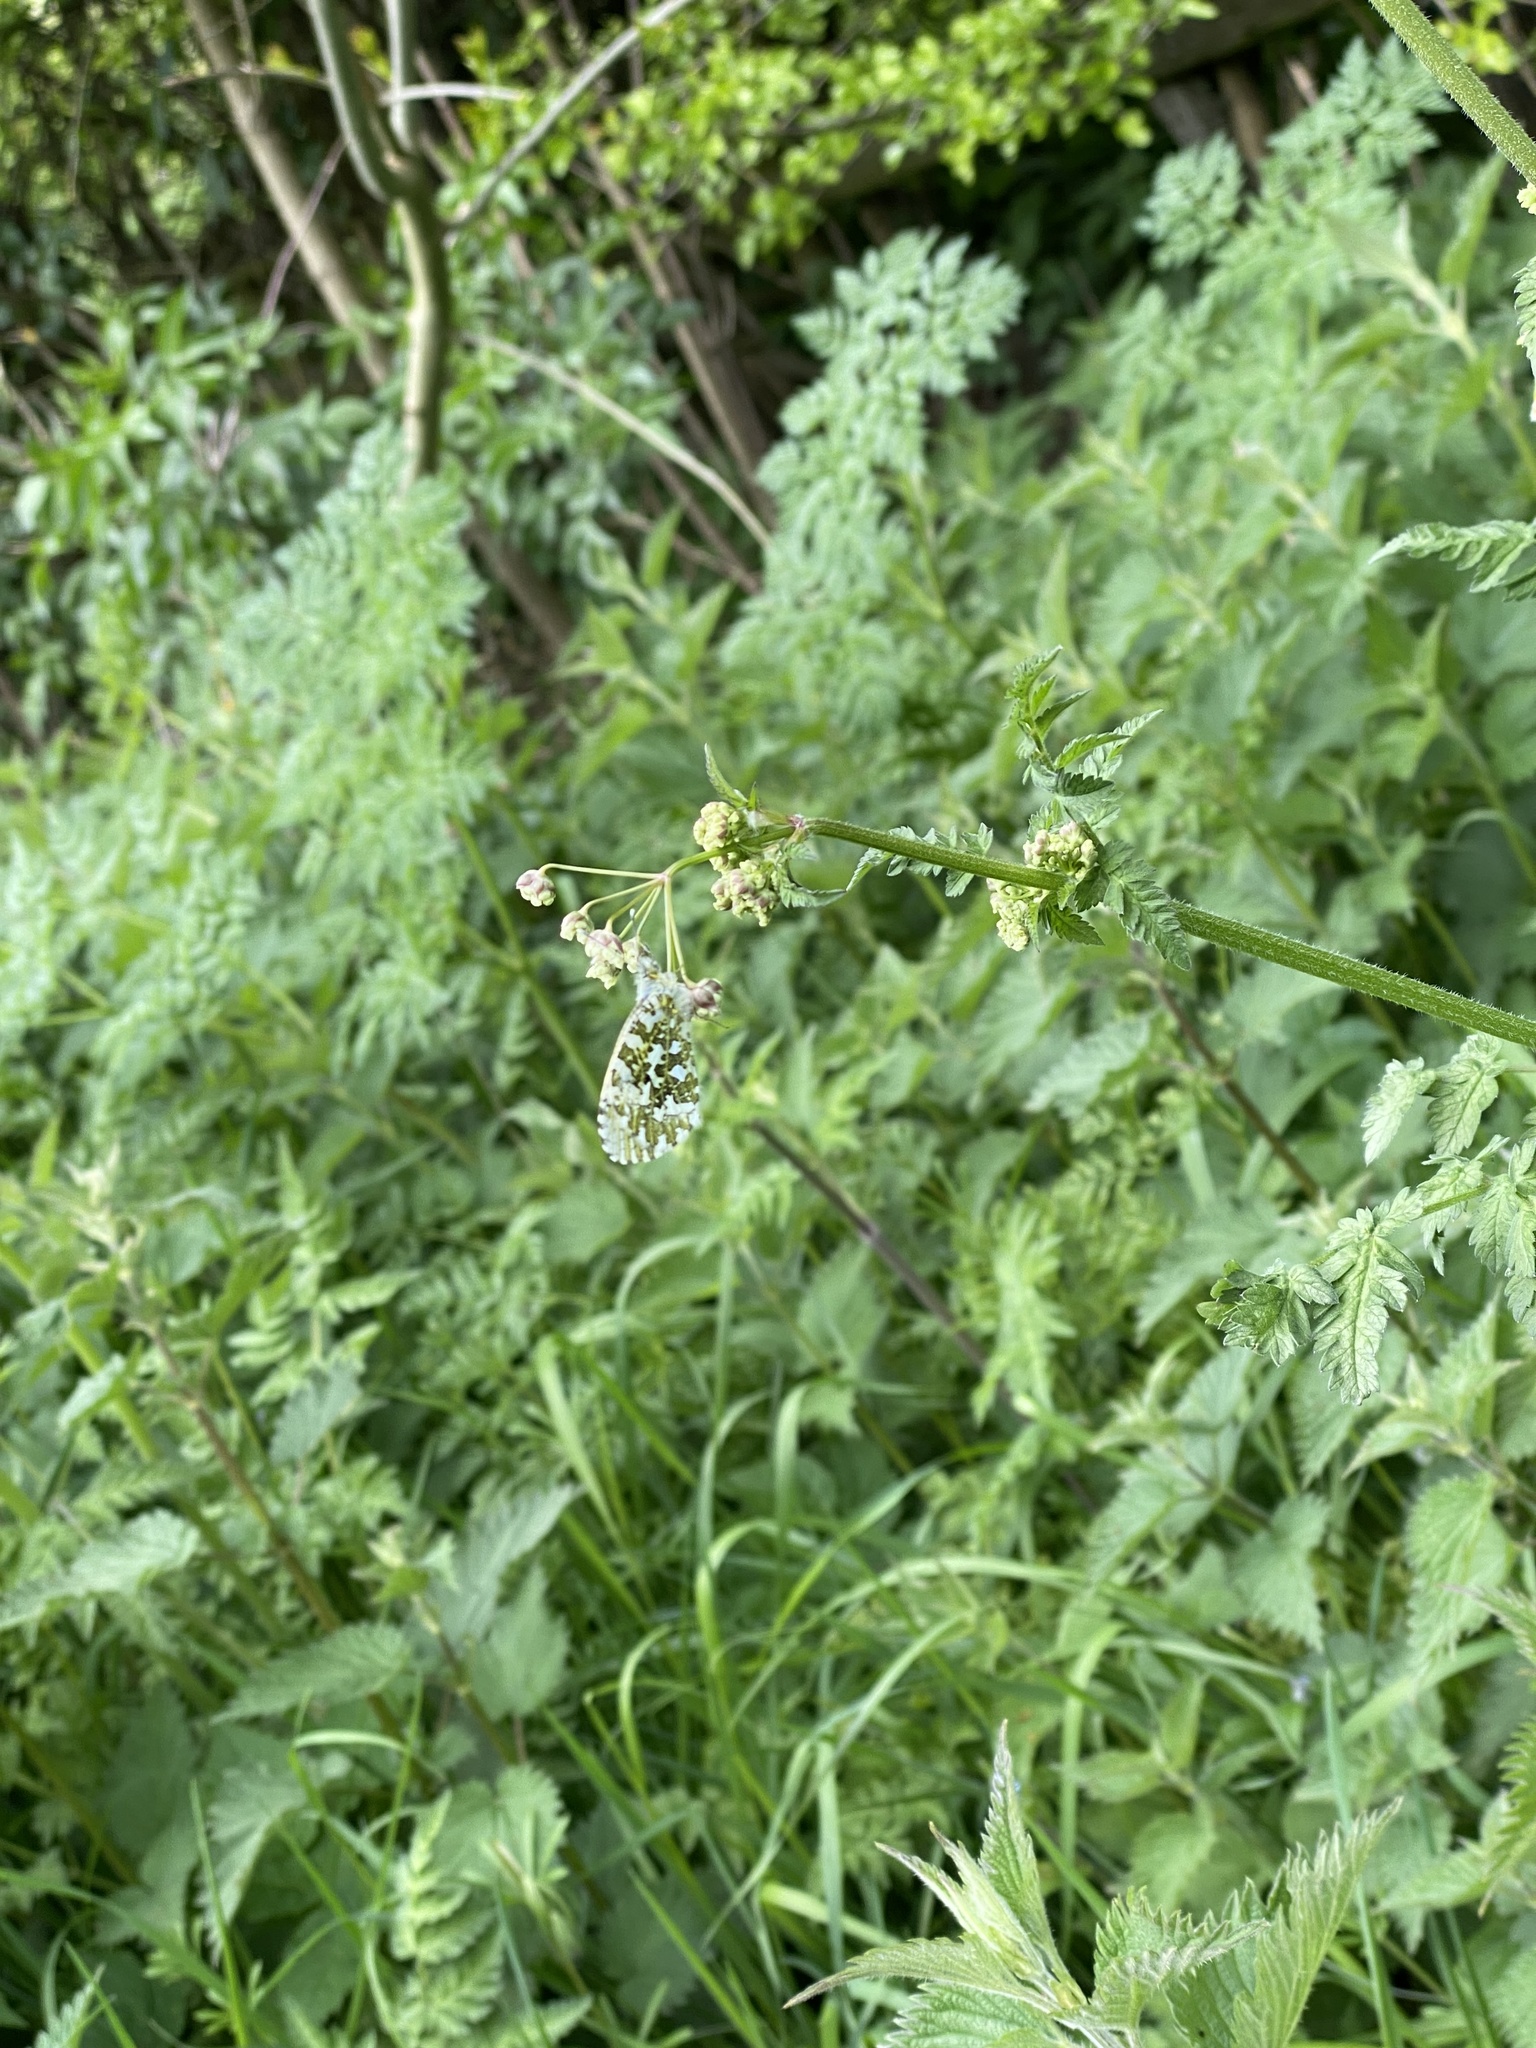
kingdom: Animalia
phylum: Arthropoda
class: Insecta
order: Lepidoptera
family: Pieridae
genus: Anthocharis
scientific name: Anthocharis cardamines
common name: Orange-tip
